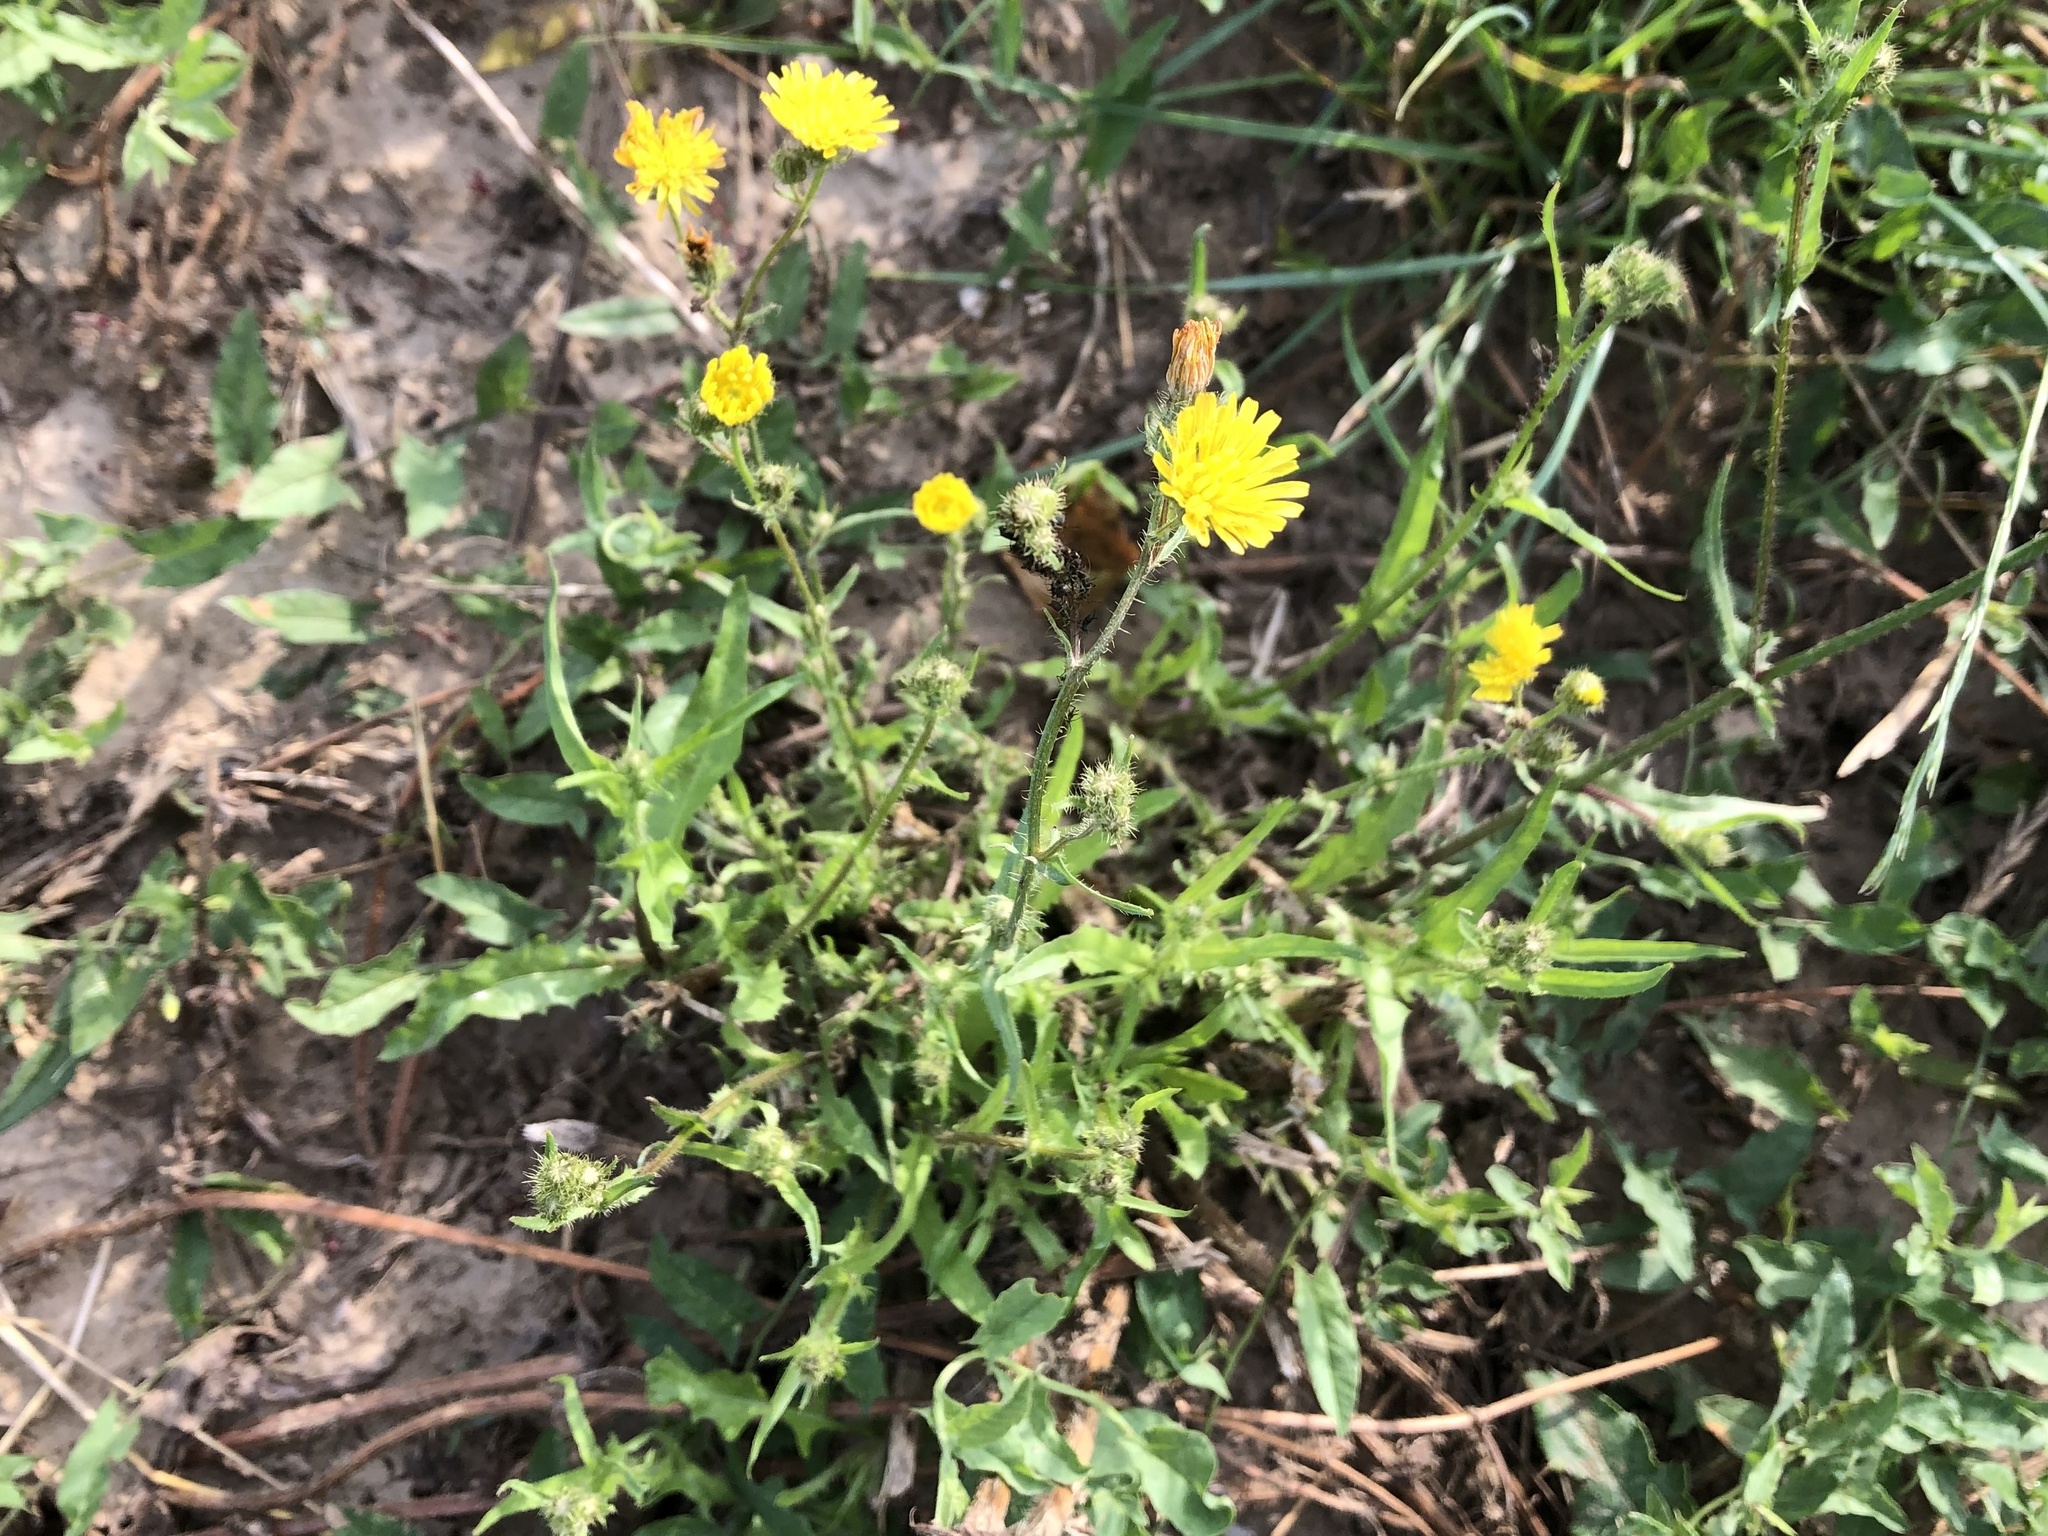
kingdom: Plantae
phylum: Tracheophyta
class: Magnoliopsida
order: Asterales
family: Asteraceae
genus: Crepis
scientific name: Crepis setosa
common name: Bristly hawk's-beard
